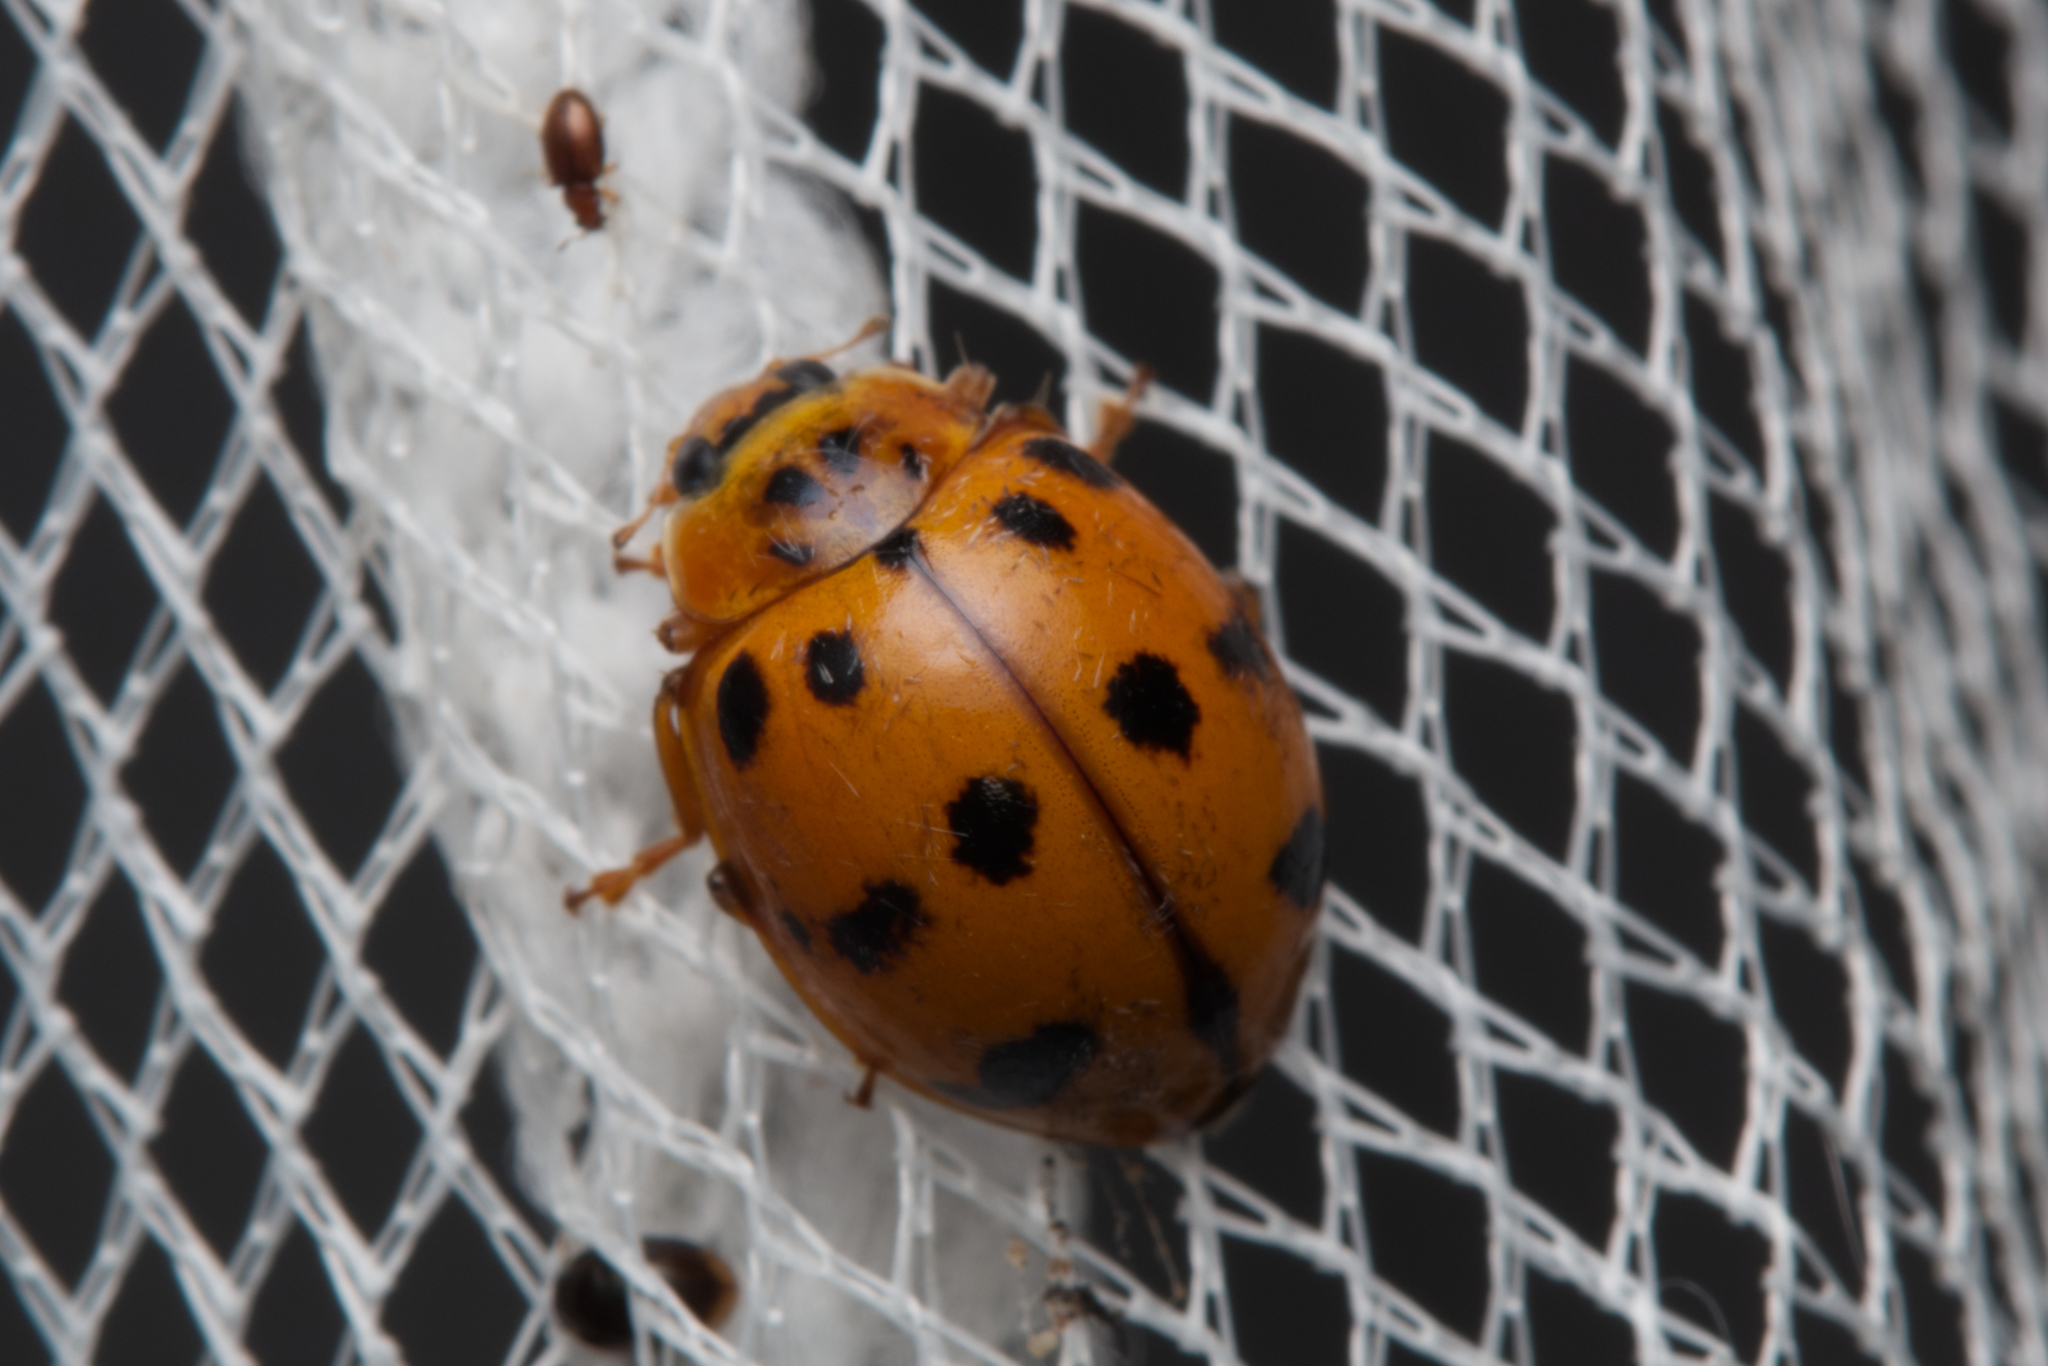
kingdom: Animalia
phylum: Arthropoda
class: Insecta
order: Coleoptera
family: Coccinellidae
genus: Harmonia
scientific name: Harmonia octomaculata
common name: Lady beetle
